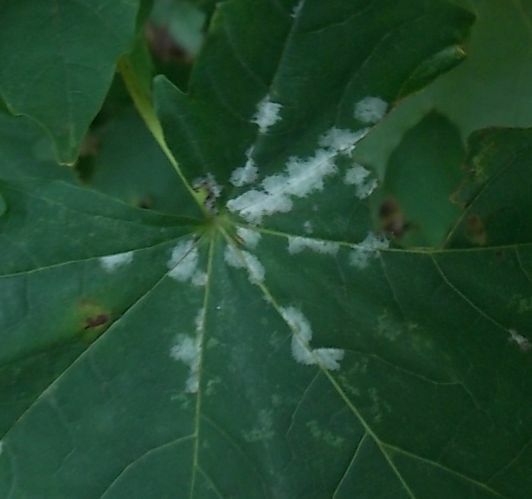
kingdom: Fungi
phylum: Ascomycota
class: Leotiomycetes
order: Helotiales
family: Erysiphaceae
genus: Sawadaea
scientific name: Sawadaea tulasnei
